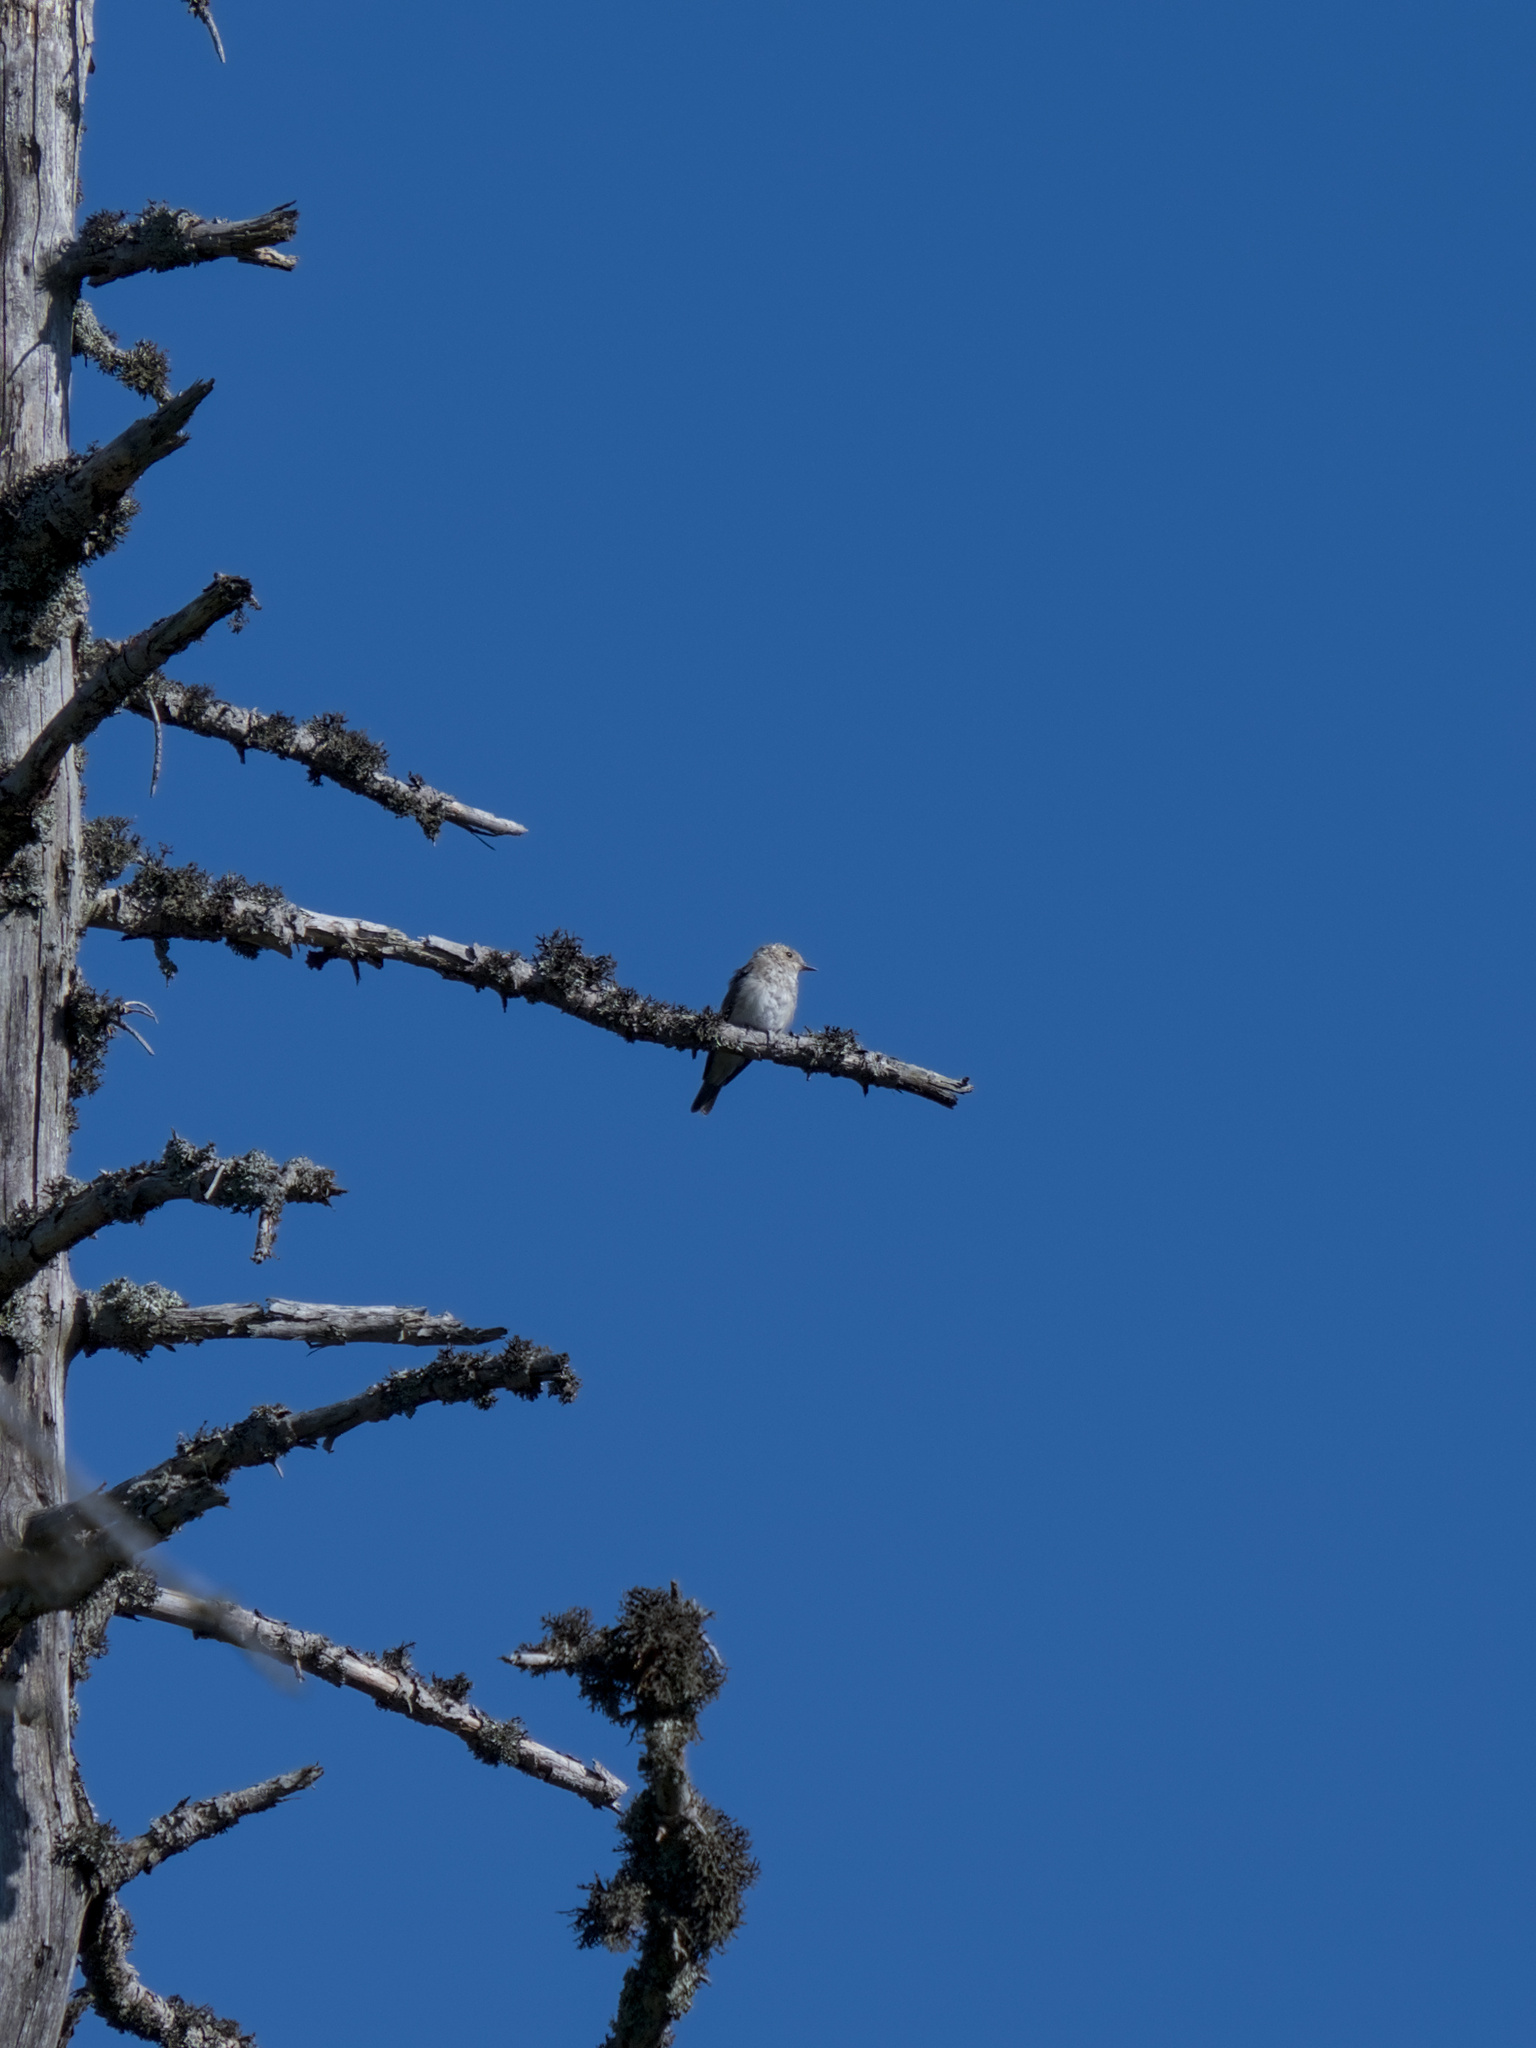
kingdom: Animalia
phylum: Chordata
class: Aves
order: Passeriformes
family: Muscicapidae
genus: Muscicapa
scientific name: Muscicapa striata
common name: Spotted flycatcher
